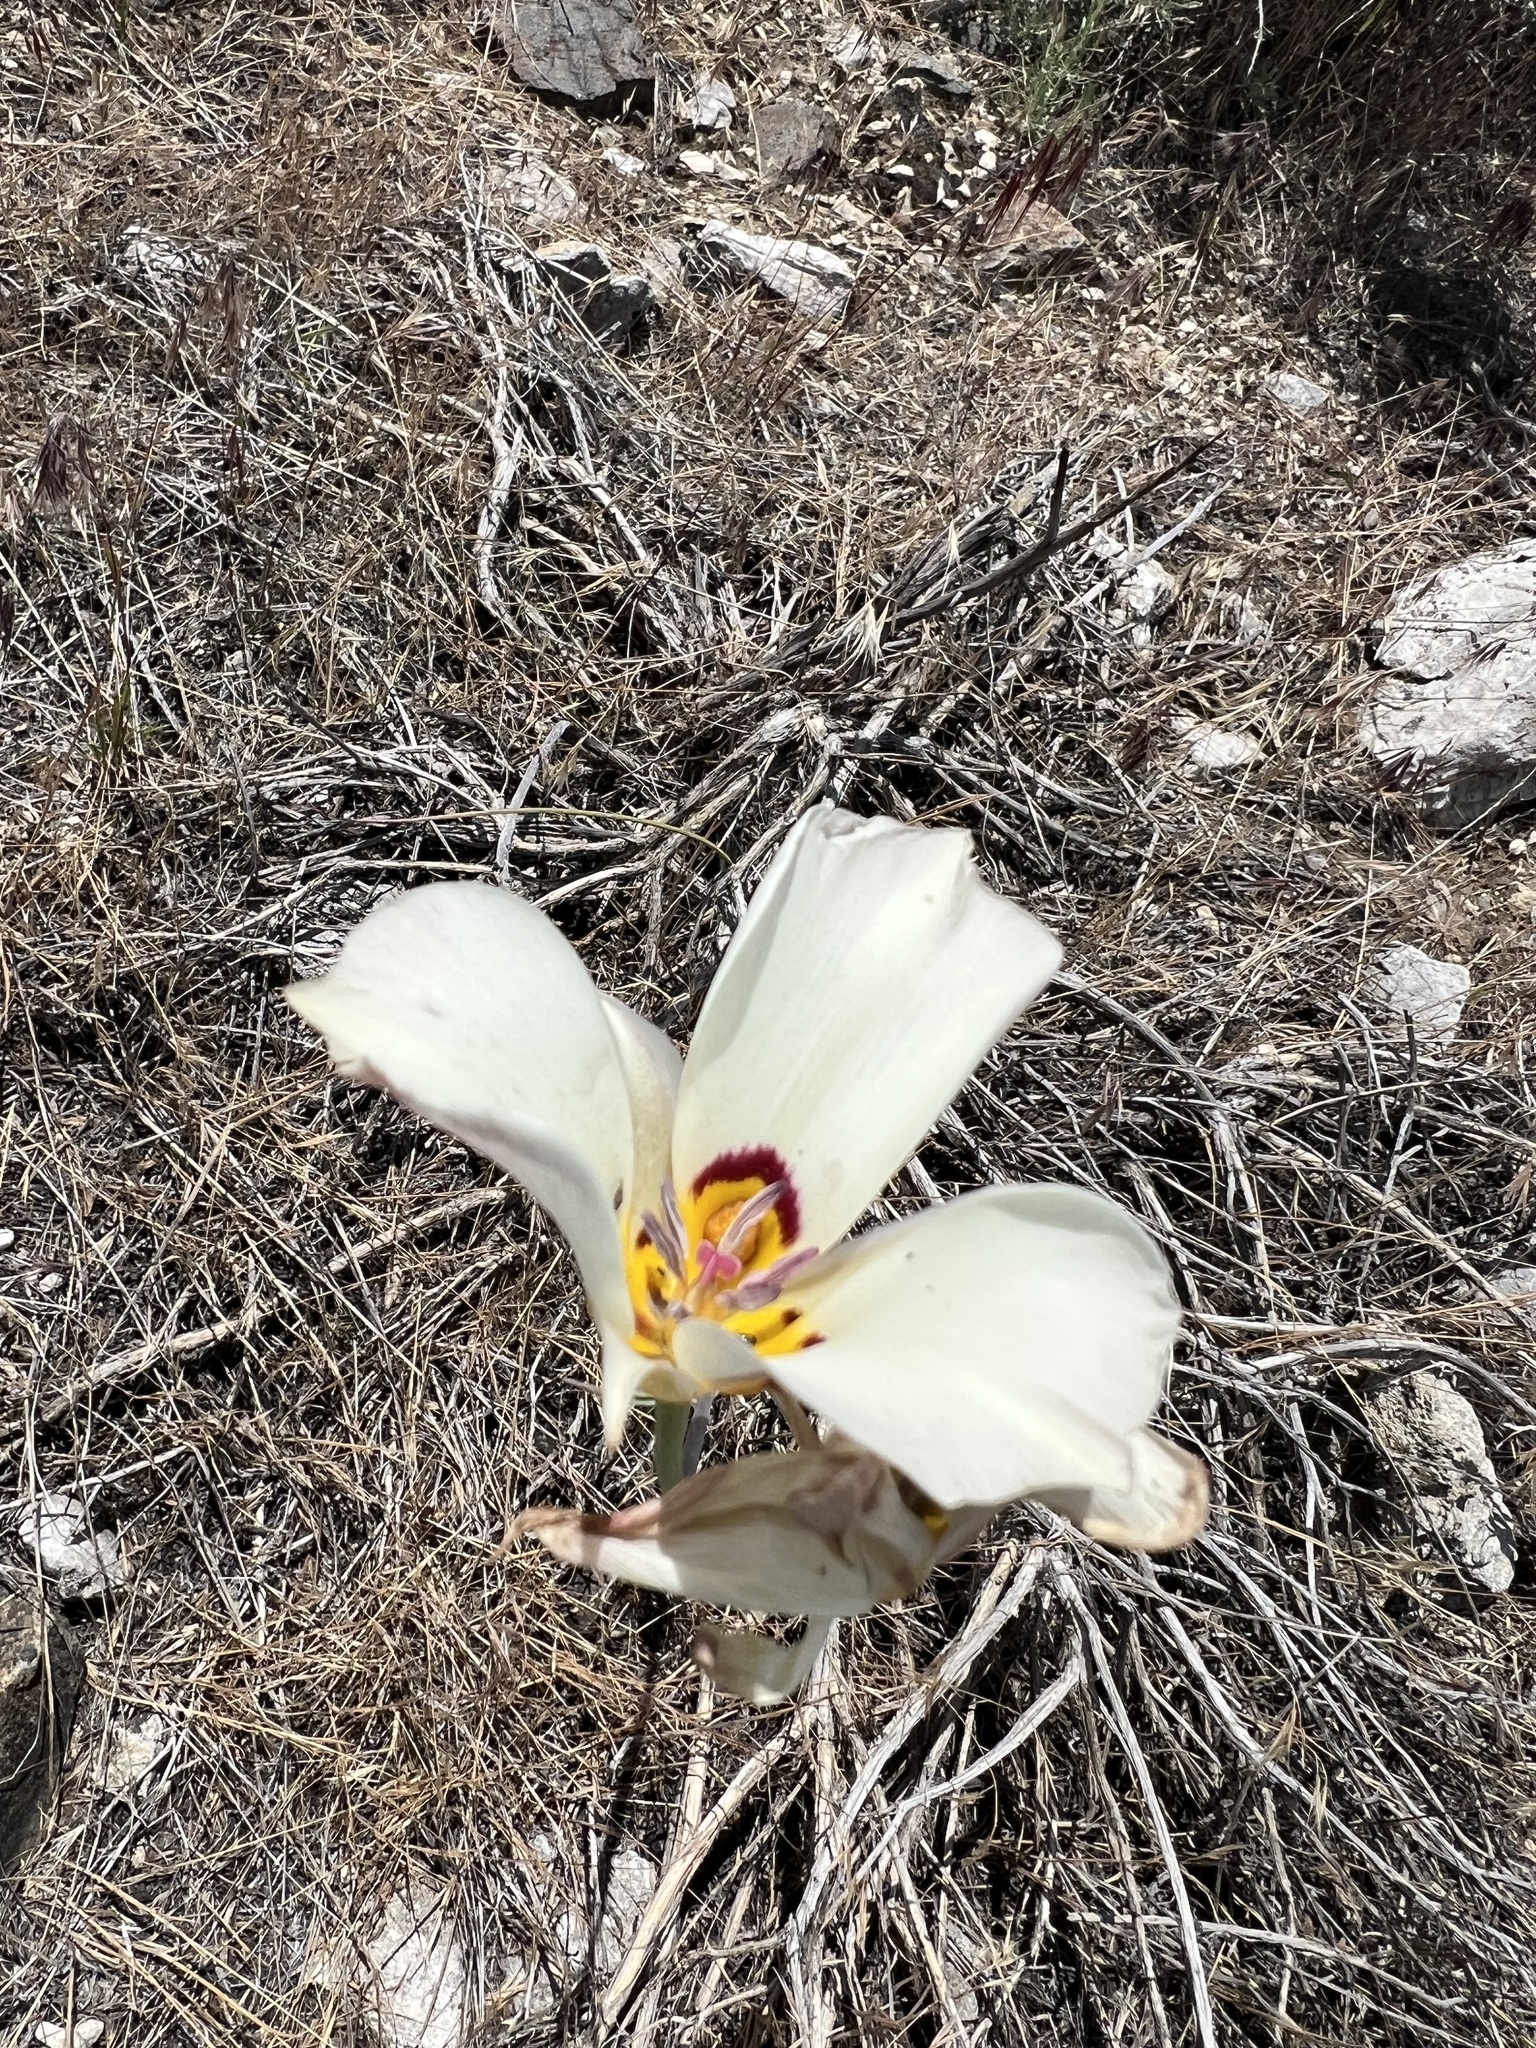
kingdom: Plantae
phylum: Tracheophyta
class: Liliopsida
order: Liliales
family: Liliaceae
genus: Calochortus
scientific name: Calochortus bruneaunis
